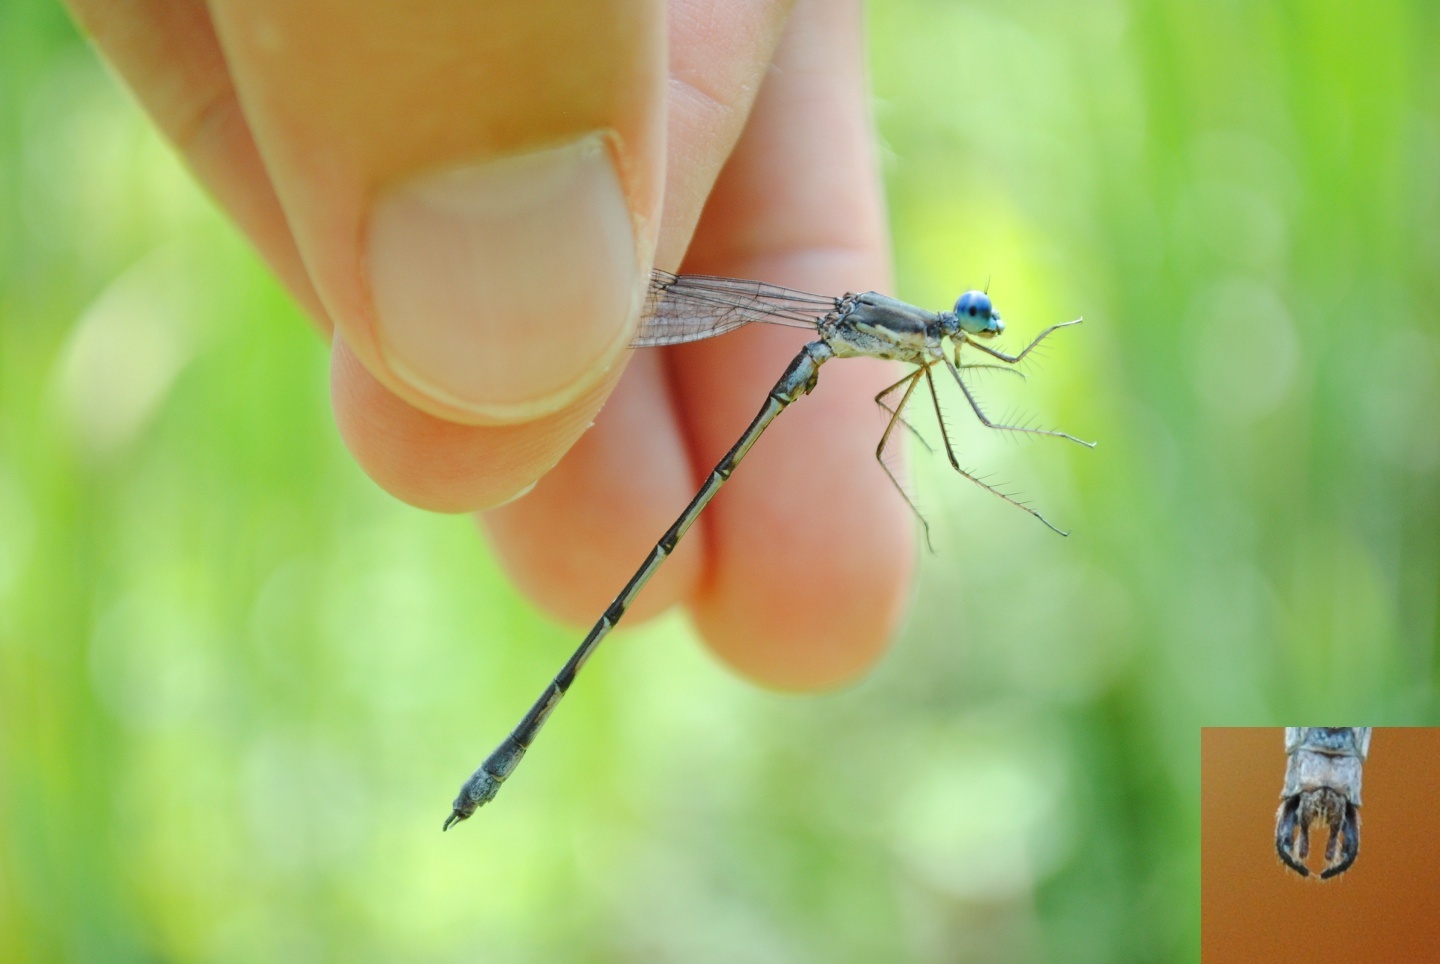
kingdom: Animalia
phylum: Arthropoda
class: Insecta
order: Odonata
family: Lestidae
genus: Lestes
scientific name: Lestes forcipatus
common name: Sweetflag spreadwing
